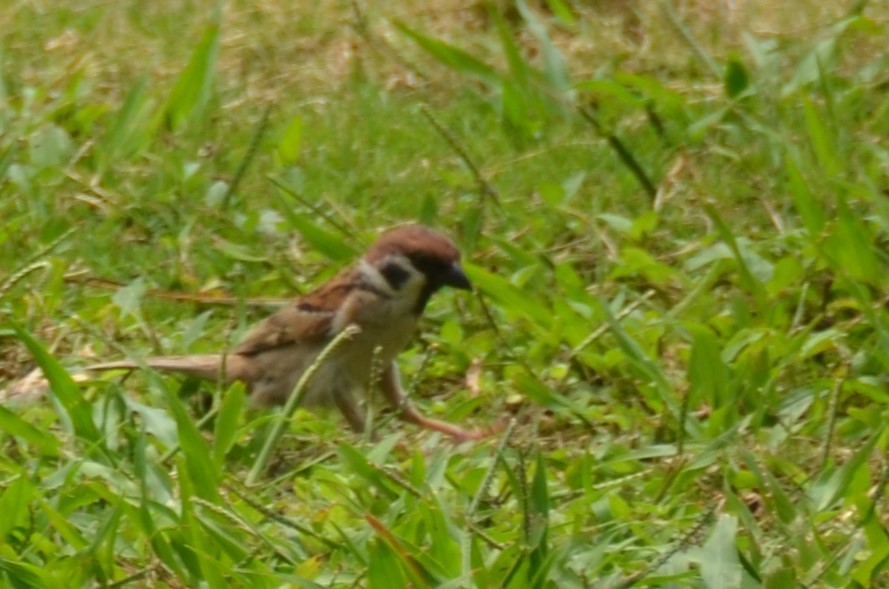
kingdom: Animalia
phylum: Chordata
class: Aves
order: Passeriformes
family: Passeridae
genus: Passer
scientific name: Passer montanus
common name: Eurasian tree sparrow
